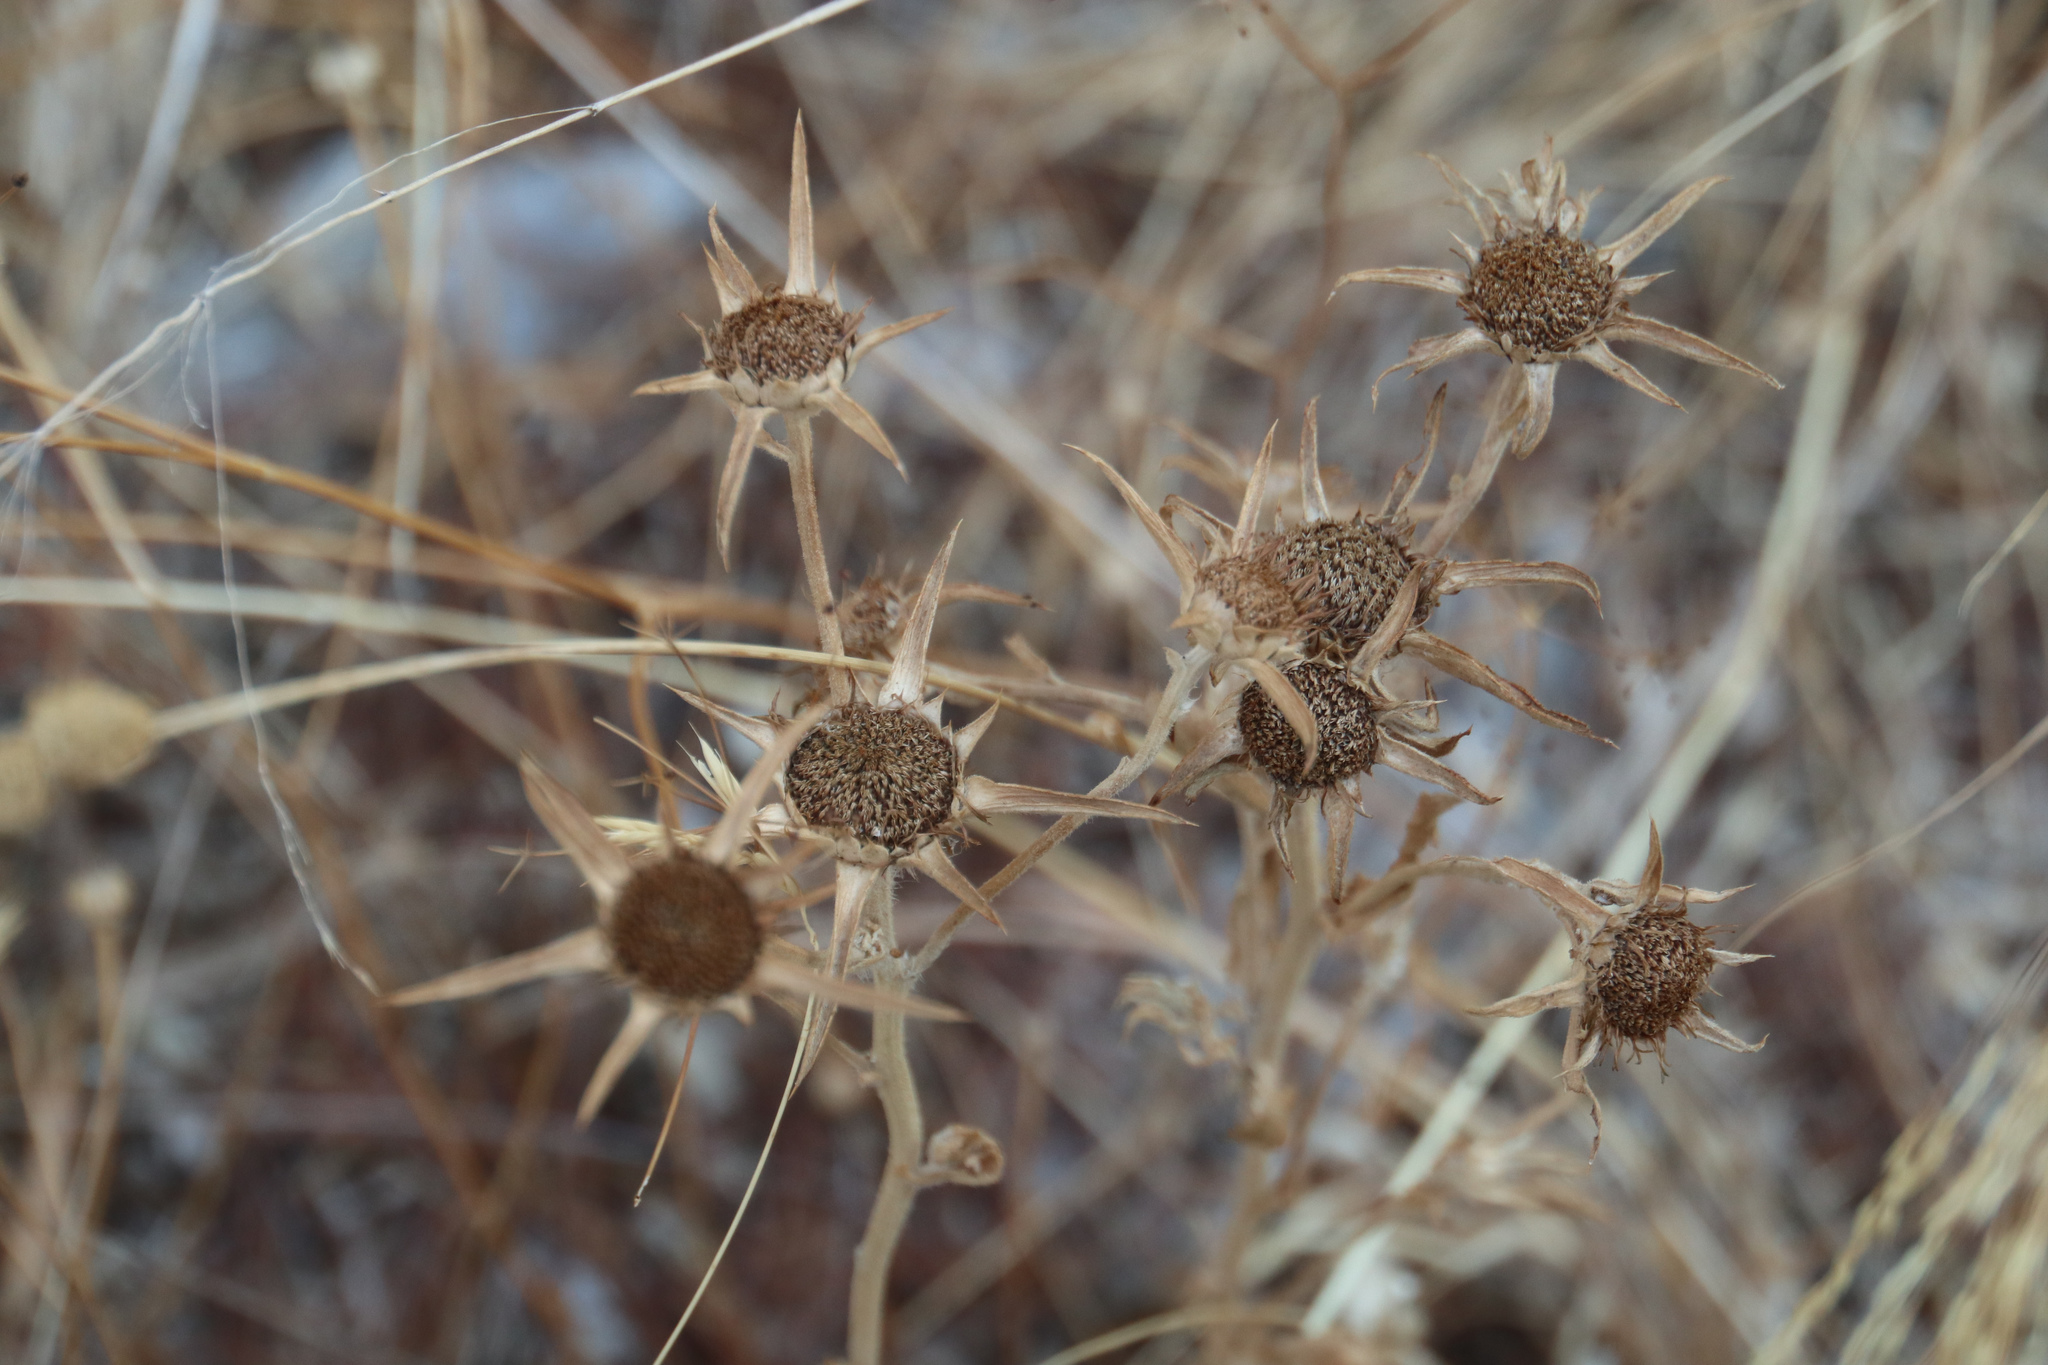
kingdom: Plantae
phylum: Tracheophyta
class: Magnoliopsida
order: Asterales
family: Asteraceae
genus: Pallenis
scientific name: Pallenis spinosa
